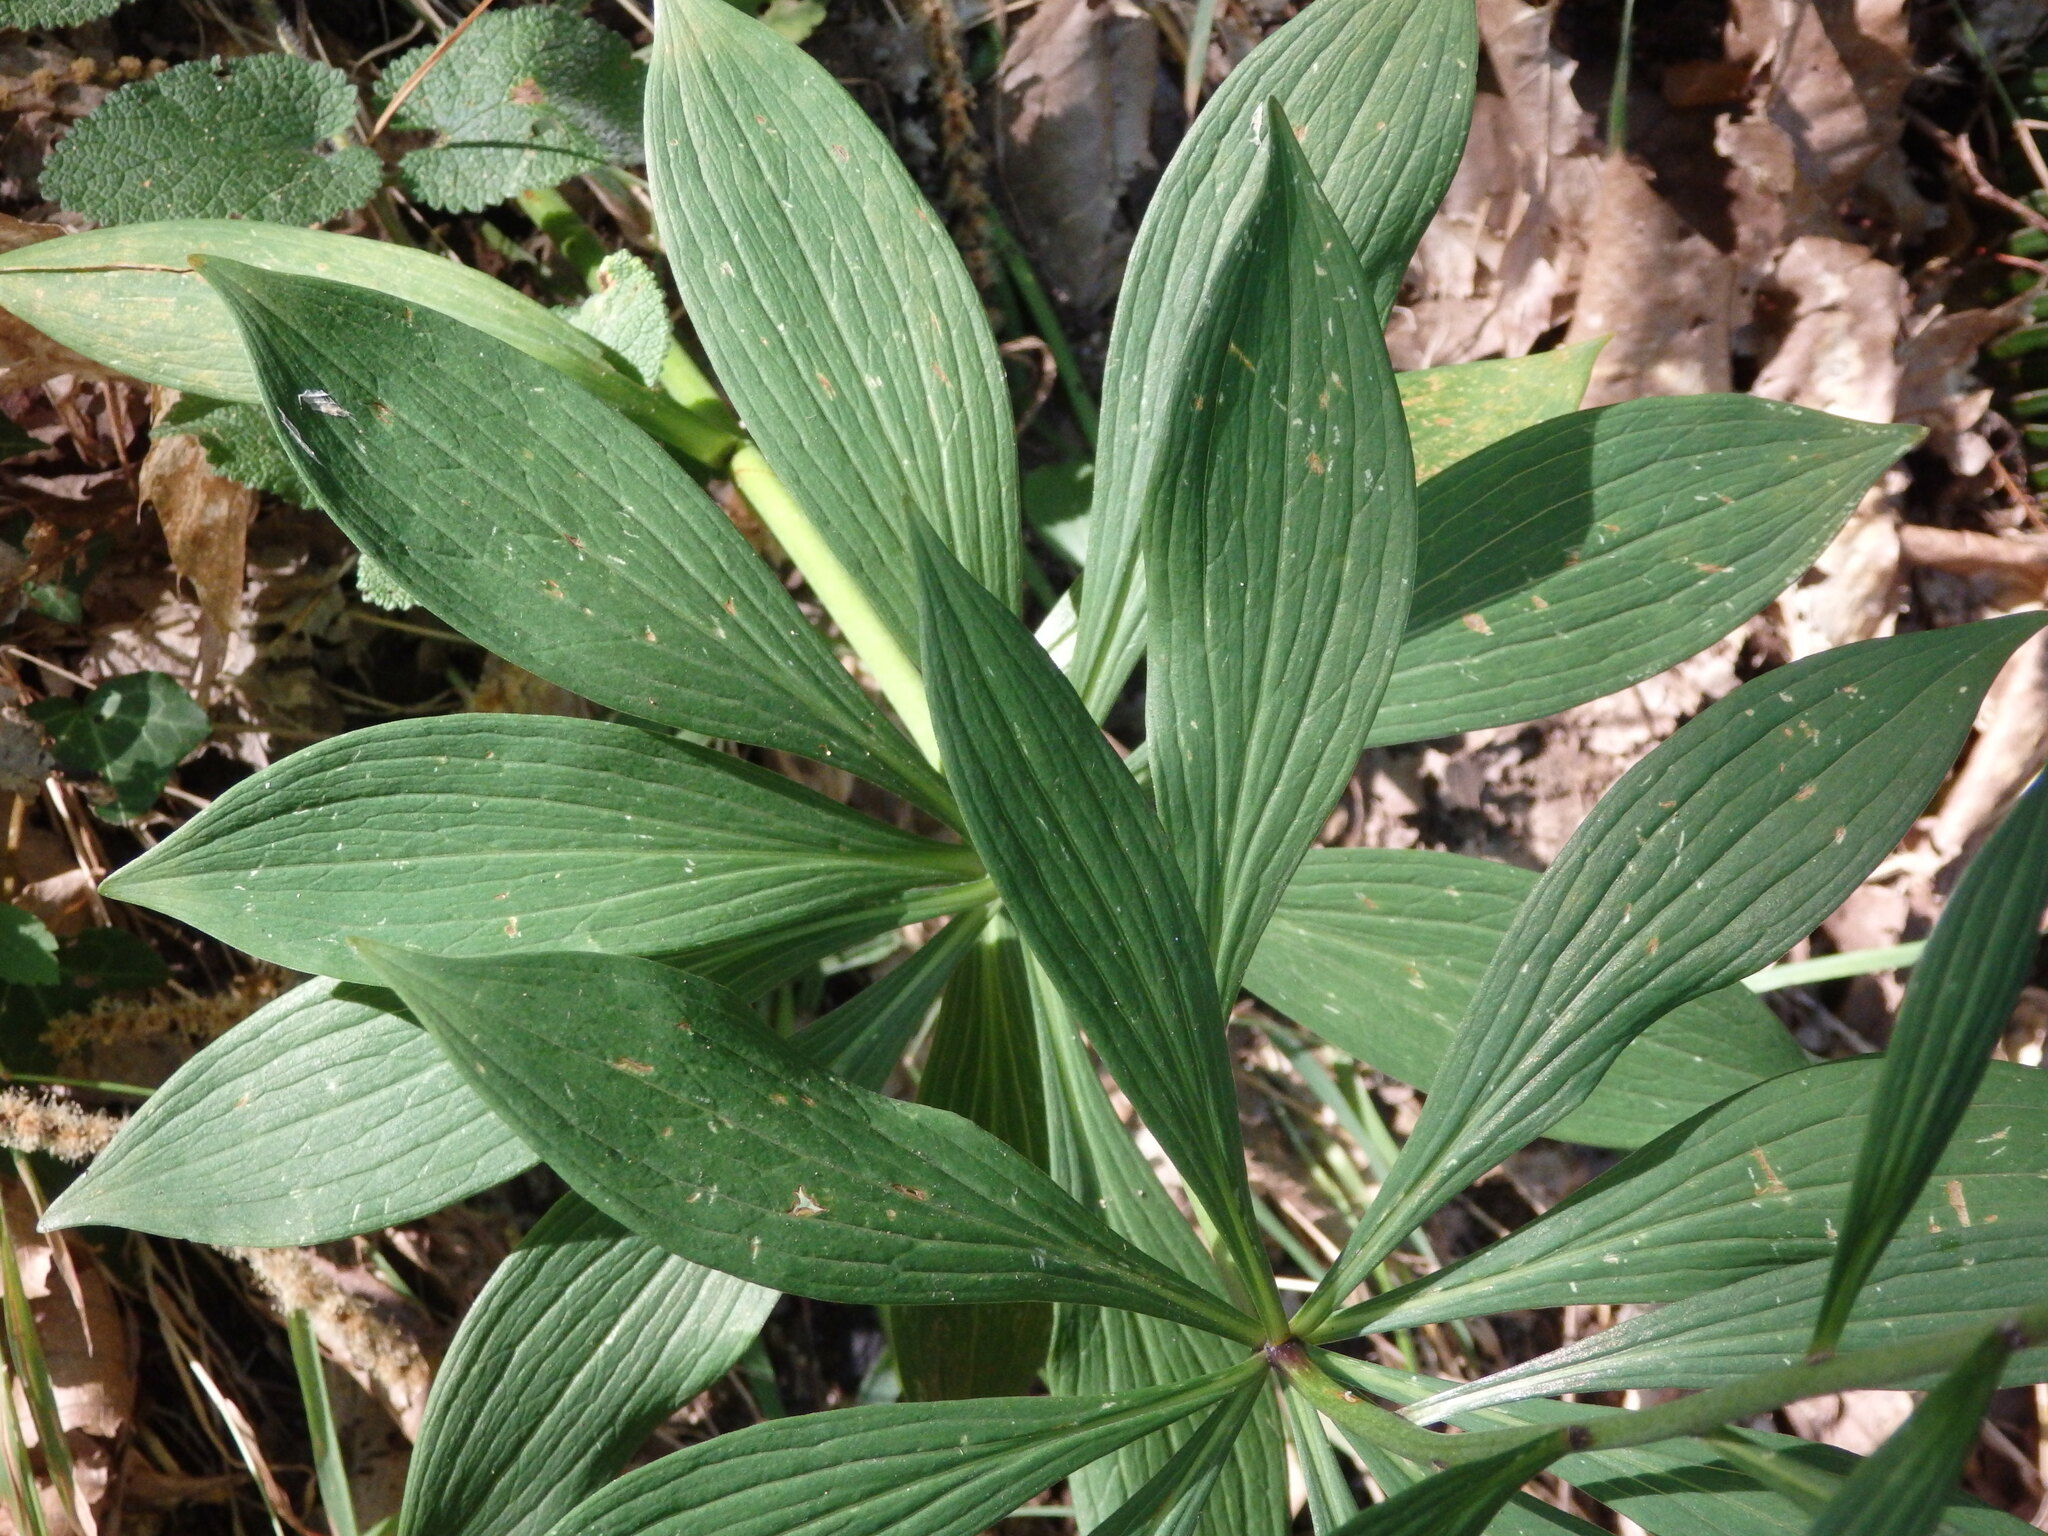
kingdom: Plantae
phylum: Tracheophyta
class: Liliopsida
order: Liliales
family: Liliaceae
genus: Lilium
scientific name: Lilium martagon
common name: Martagon lily
